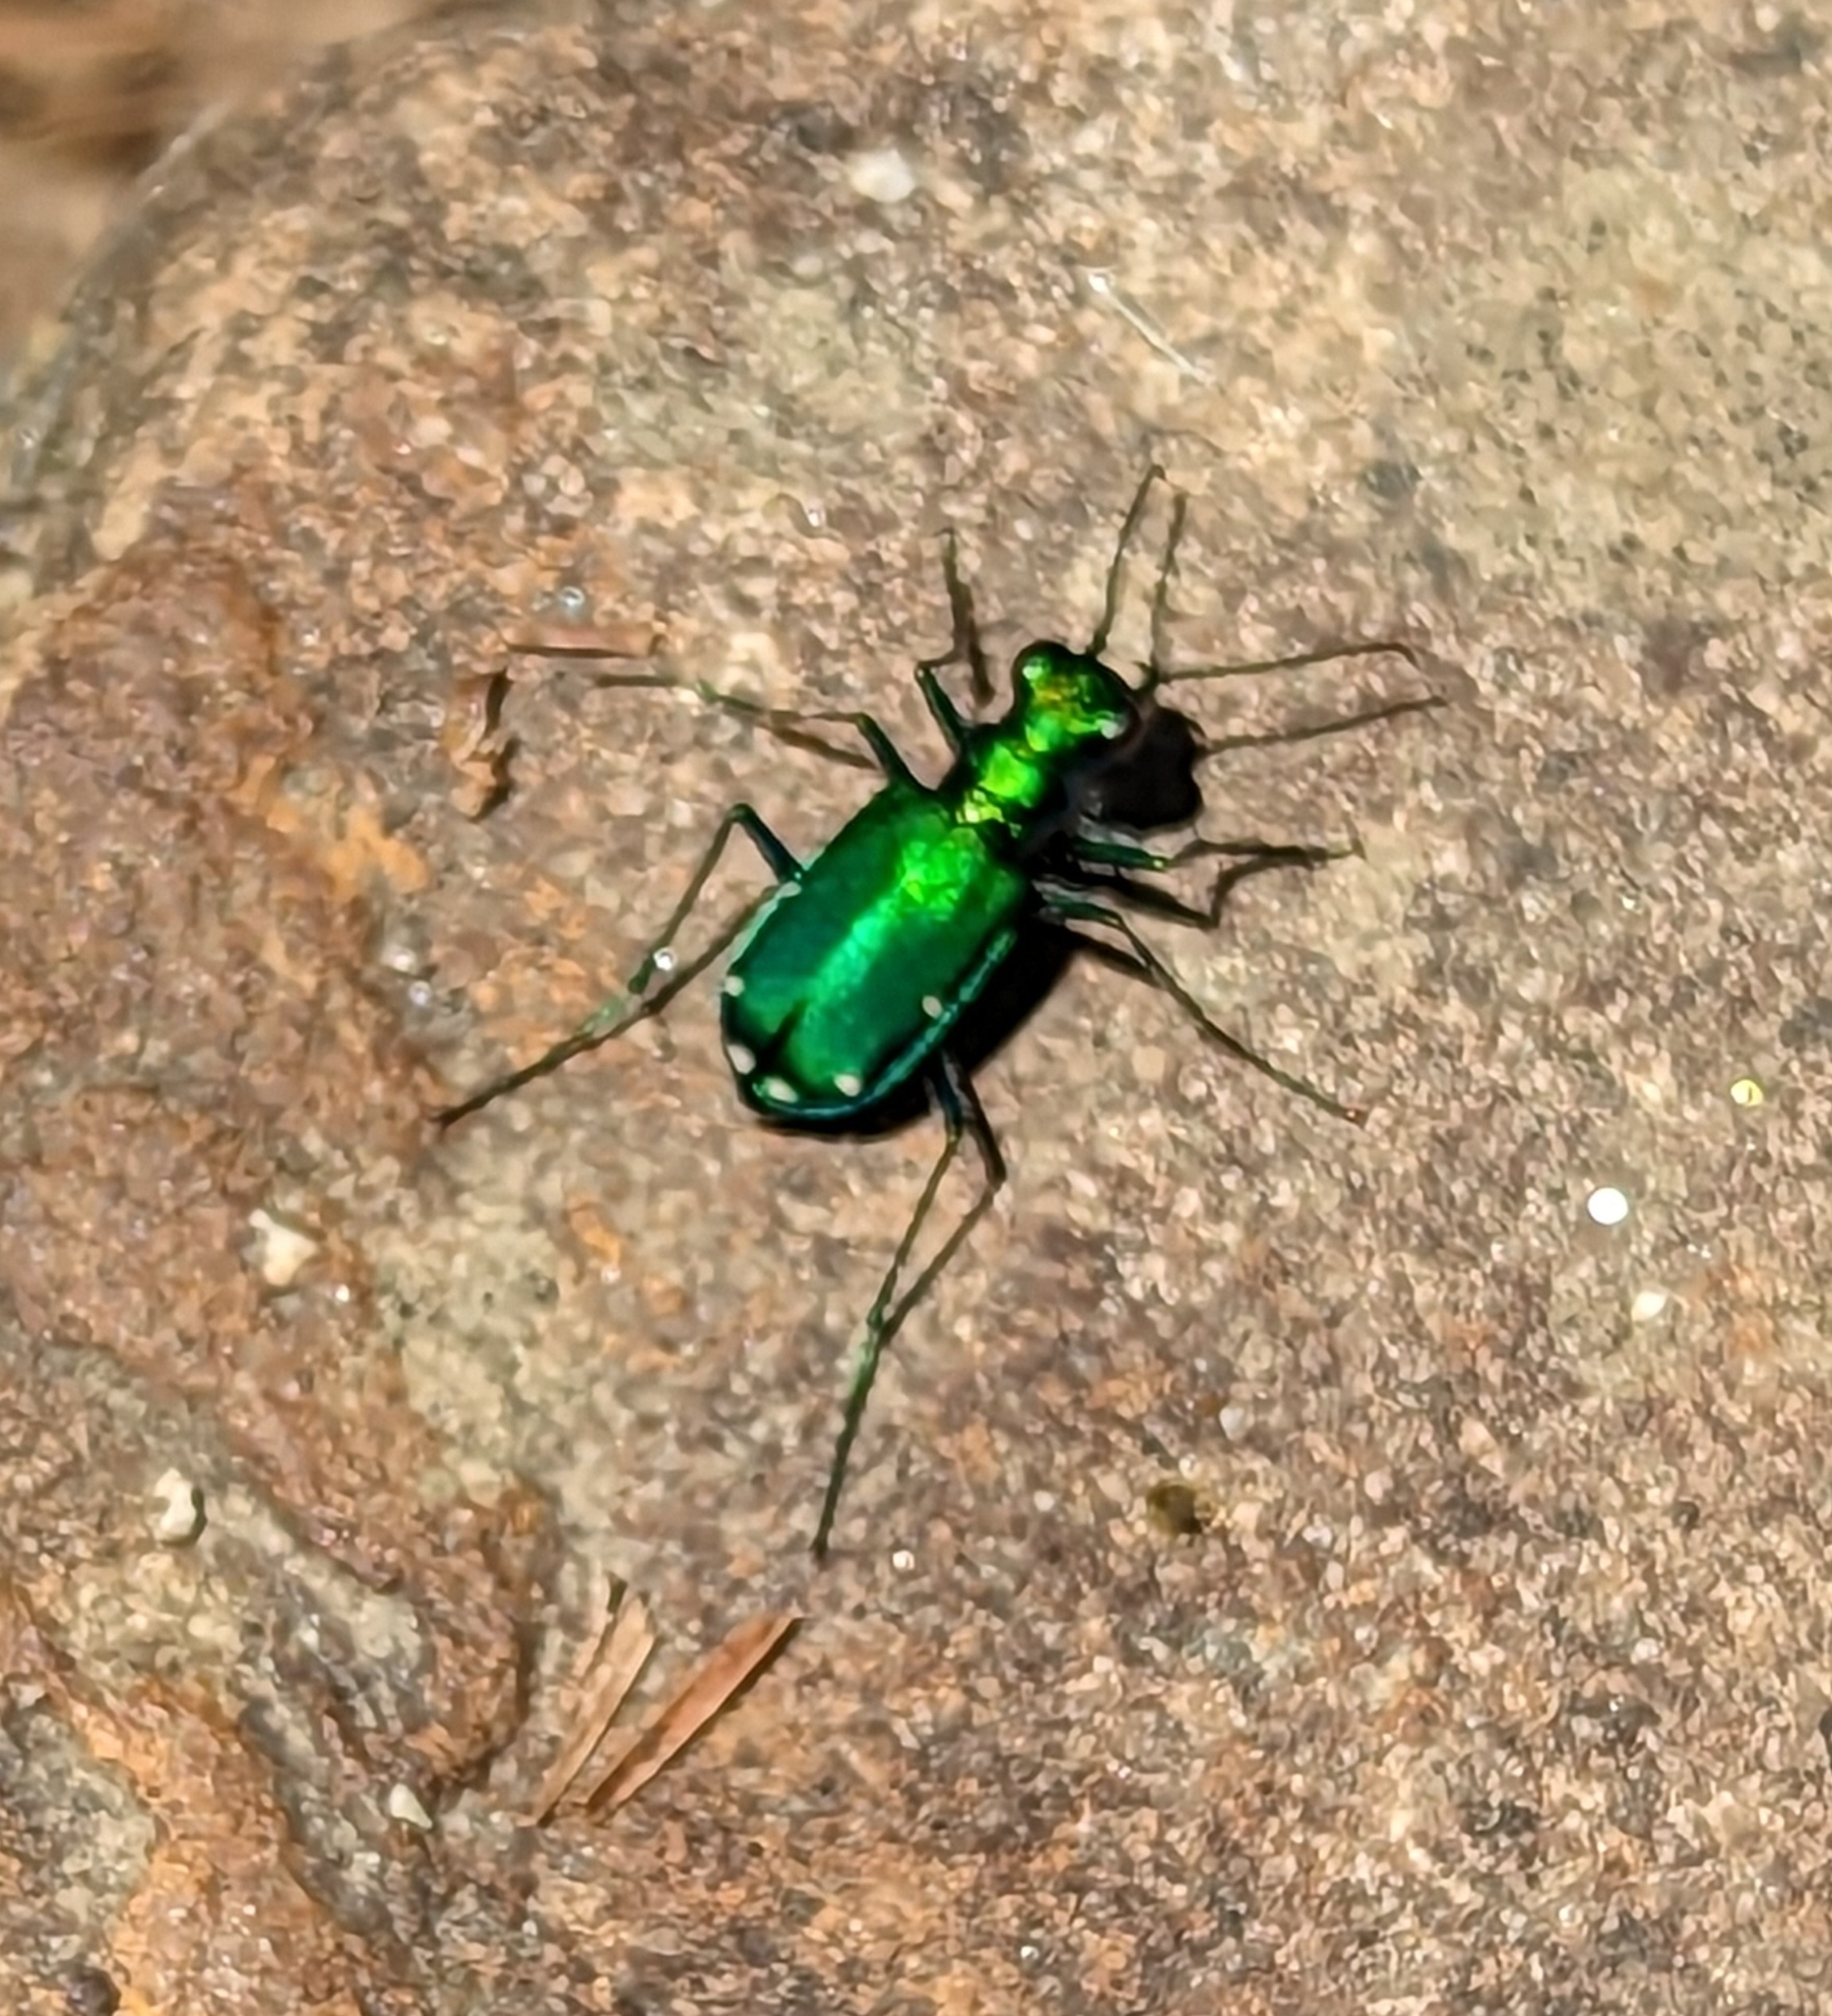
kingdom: Animalia
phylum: Arthropoda
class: Insecta
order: Coleoptera
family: Carabidae
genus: Cicindela
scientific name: Cicindela sexguttata
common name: Six-spotted tiger beetle
